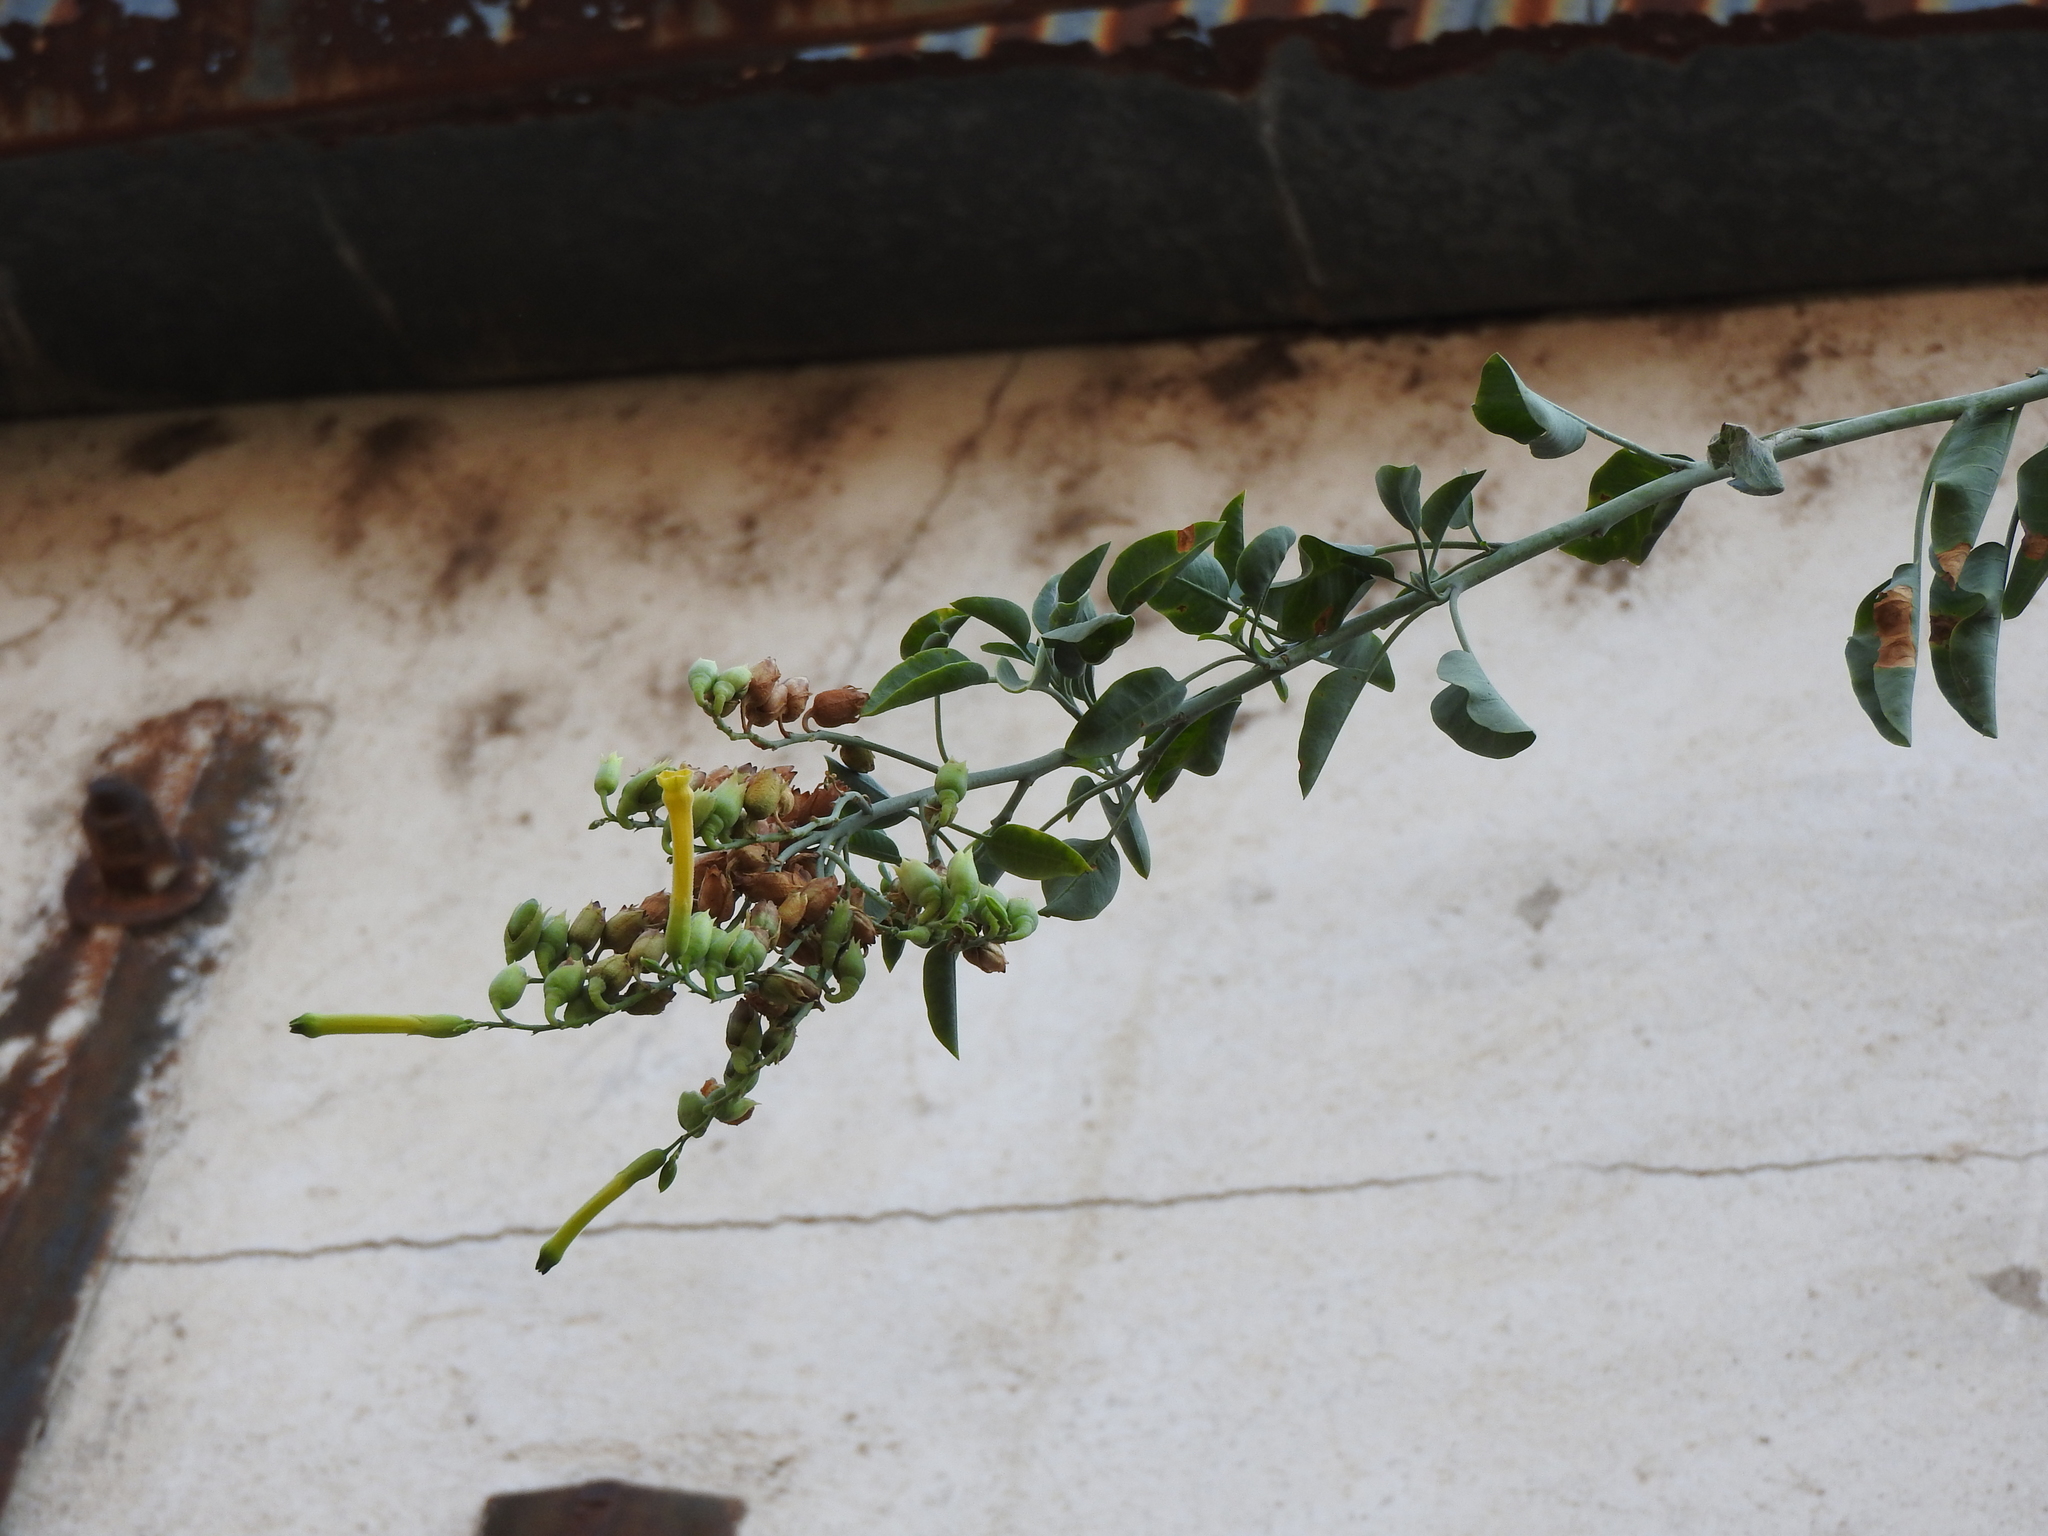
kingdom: Plantae
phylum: Tracheophyta
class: Magnoliopsida
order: Solanales
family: Solanaceae
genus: Nicotiana
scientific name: Nicotiana glauca
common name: Tree tobacco
